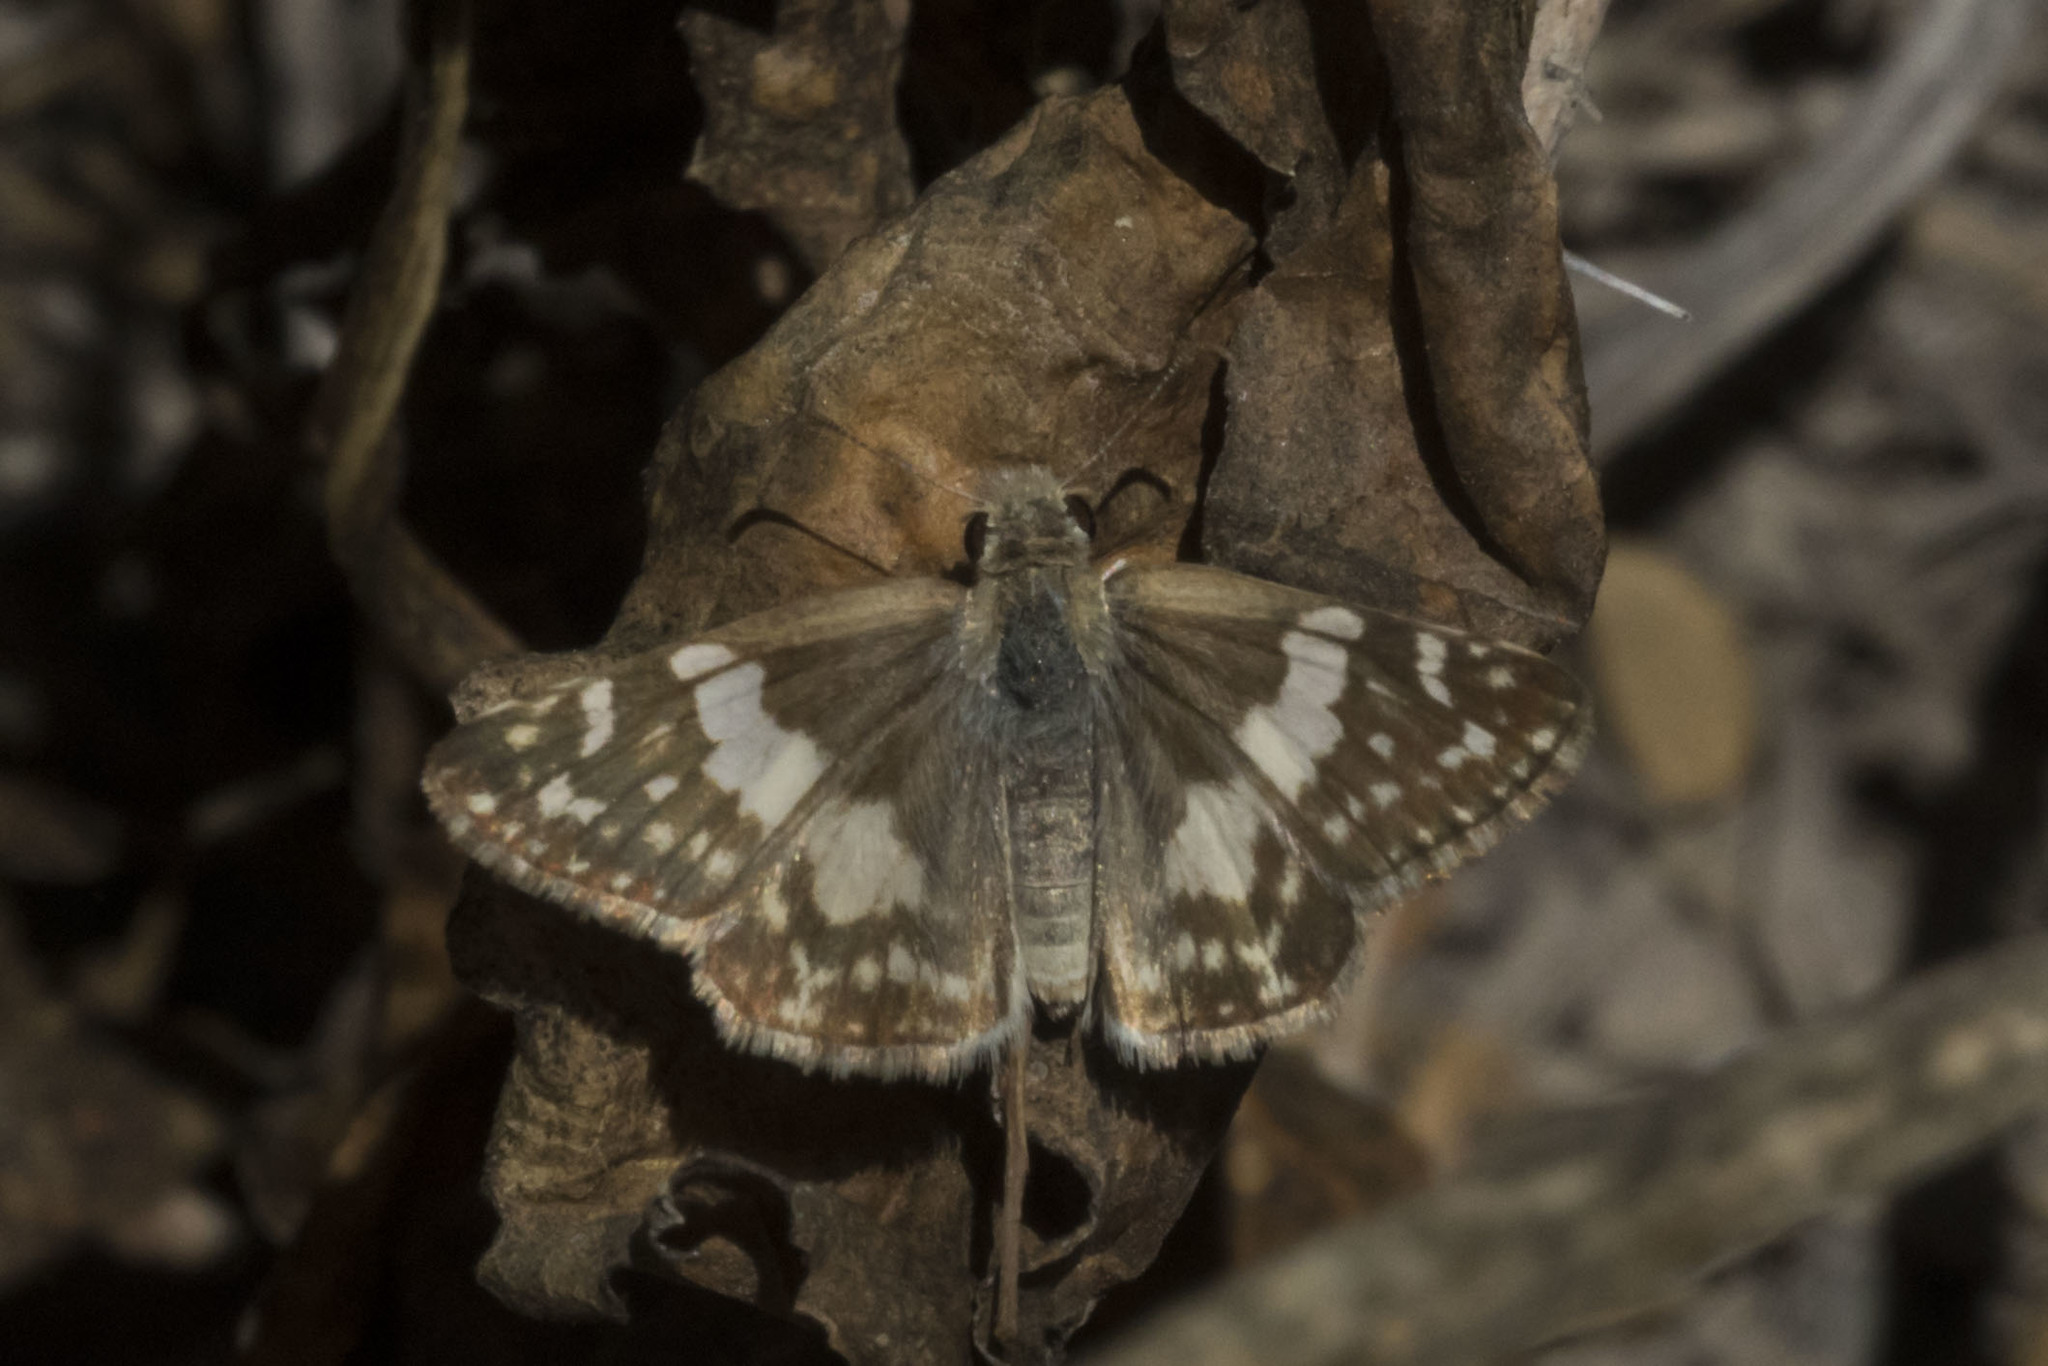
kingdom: Animalia
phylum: Arthropoda
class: Insecta
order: Lepidoptera
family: Hesperiidae
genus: Heliopyrgus
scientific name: Heliopyrgus domicella
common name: Erichson's white skipper
